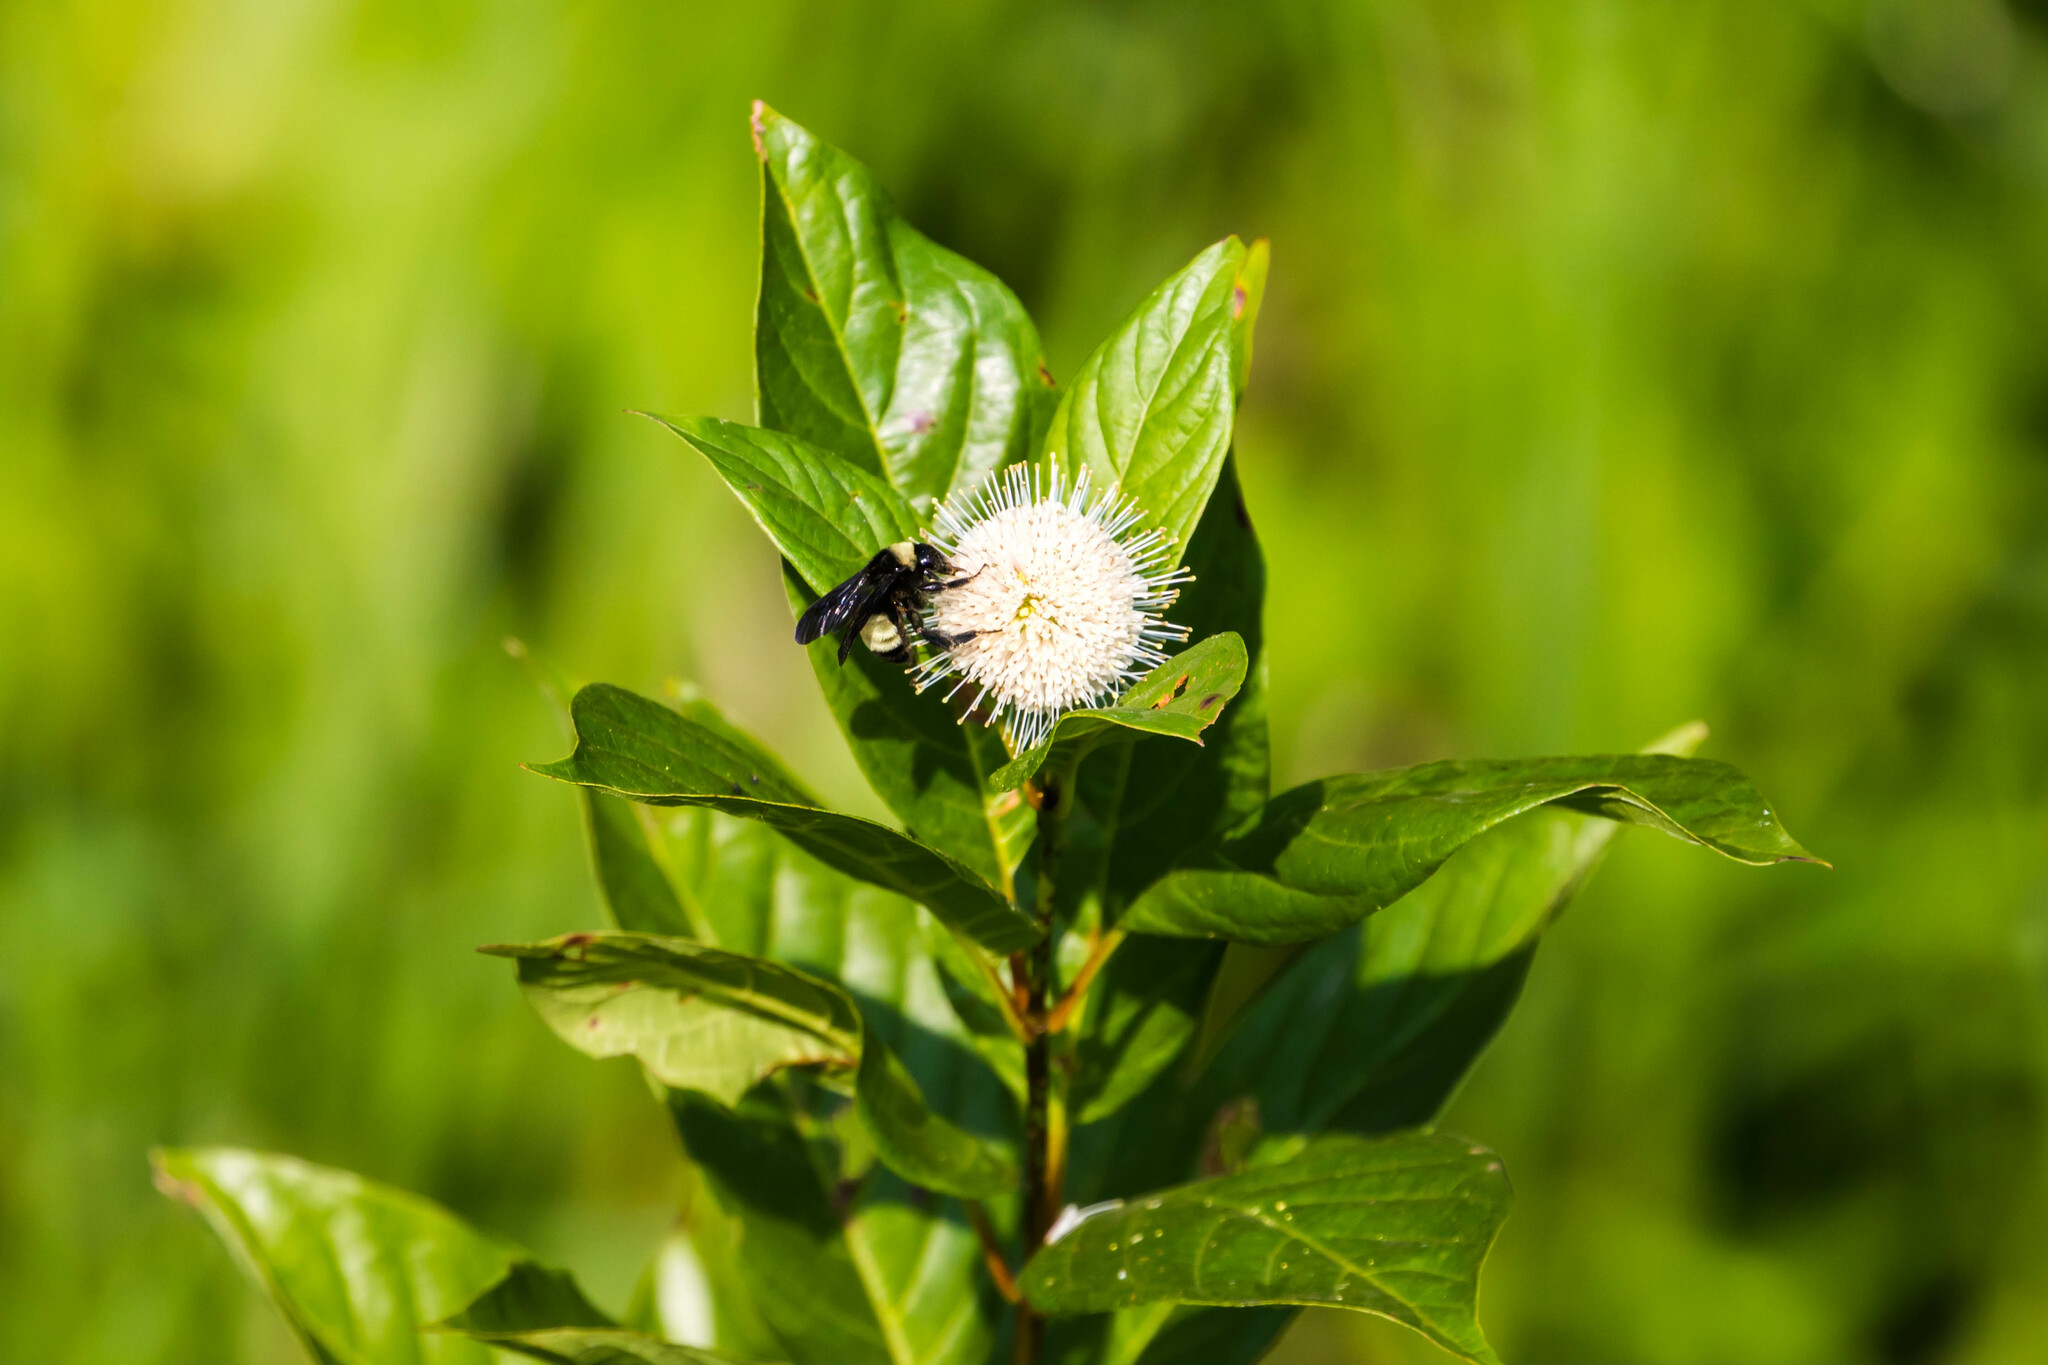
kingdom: Animalia
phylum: Arthropoda
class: Insecta
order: Hymenoptera
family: Apidae
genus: Bombus
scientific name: Bombus pensylvanicus
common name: Bumble bee
